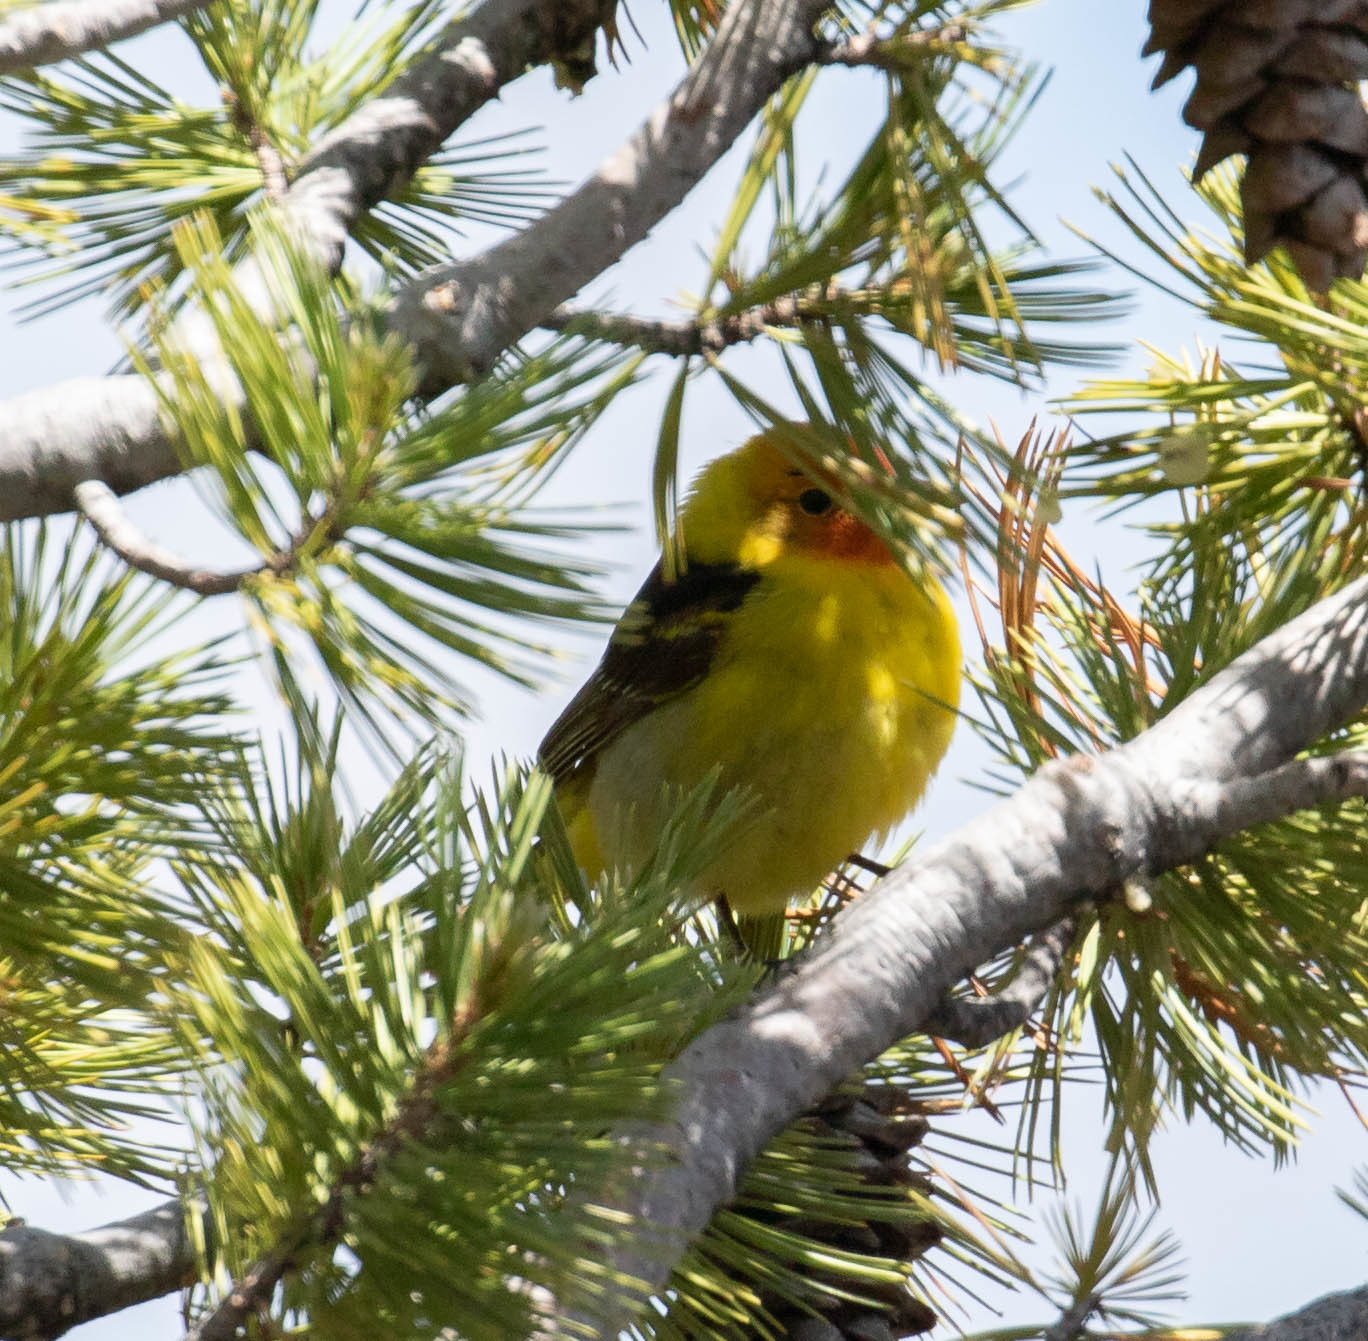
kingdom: Animalia
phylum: Chordata
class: Aves
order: Passeriformes
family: Cardinalidae
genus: Piranga
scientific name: Piranga ludoviciana
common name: Western tanager
